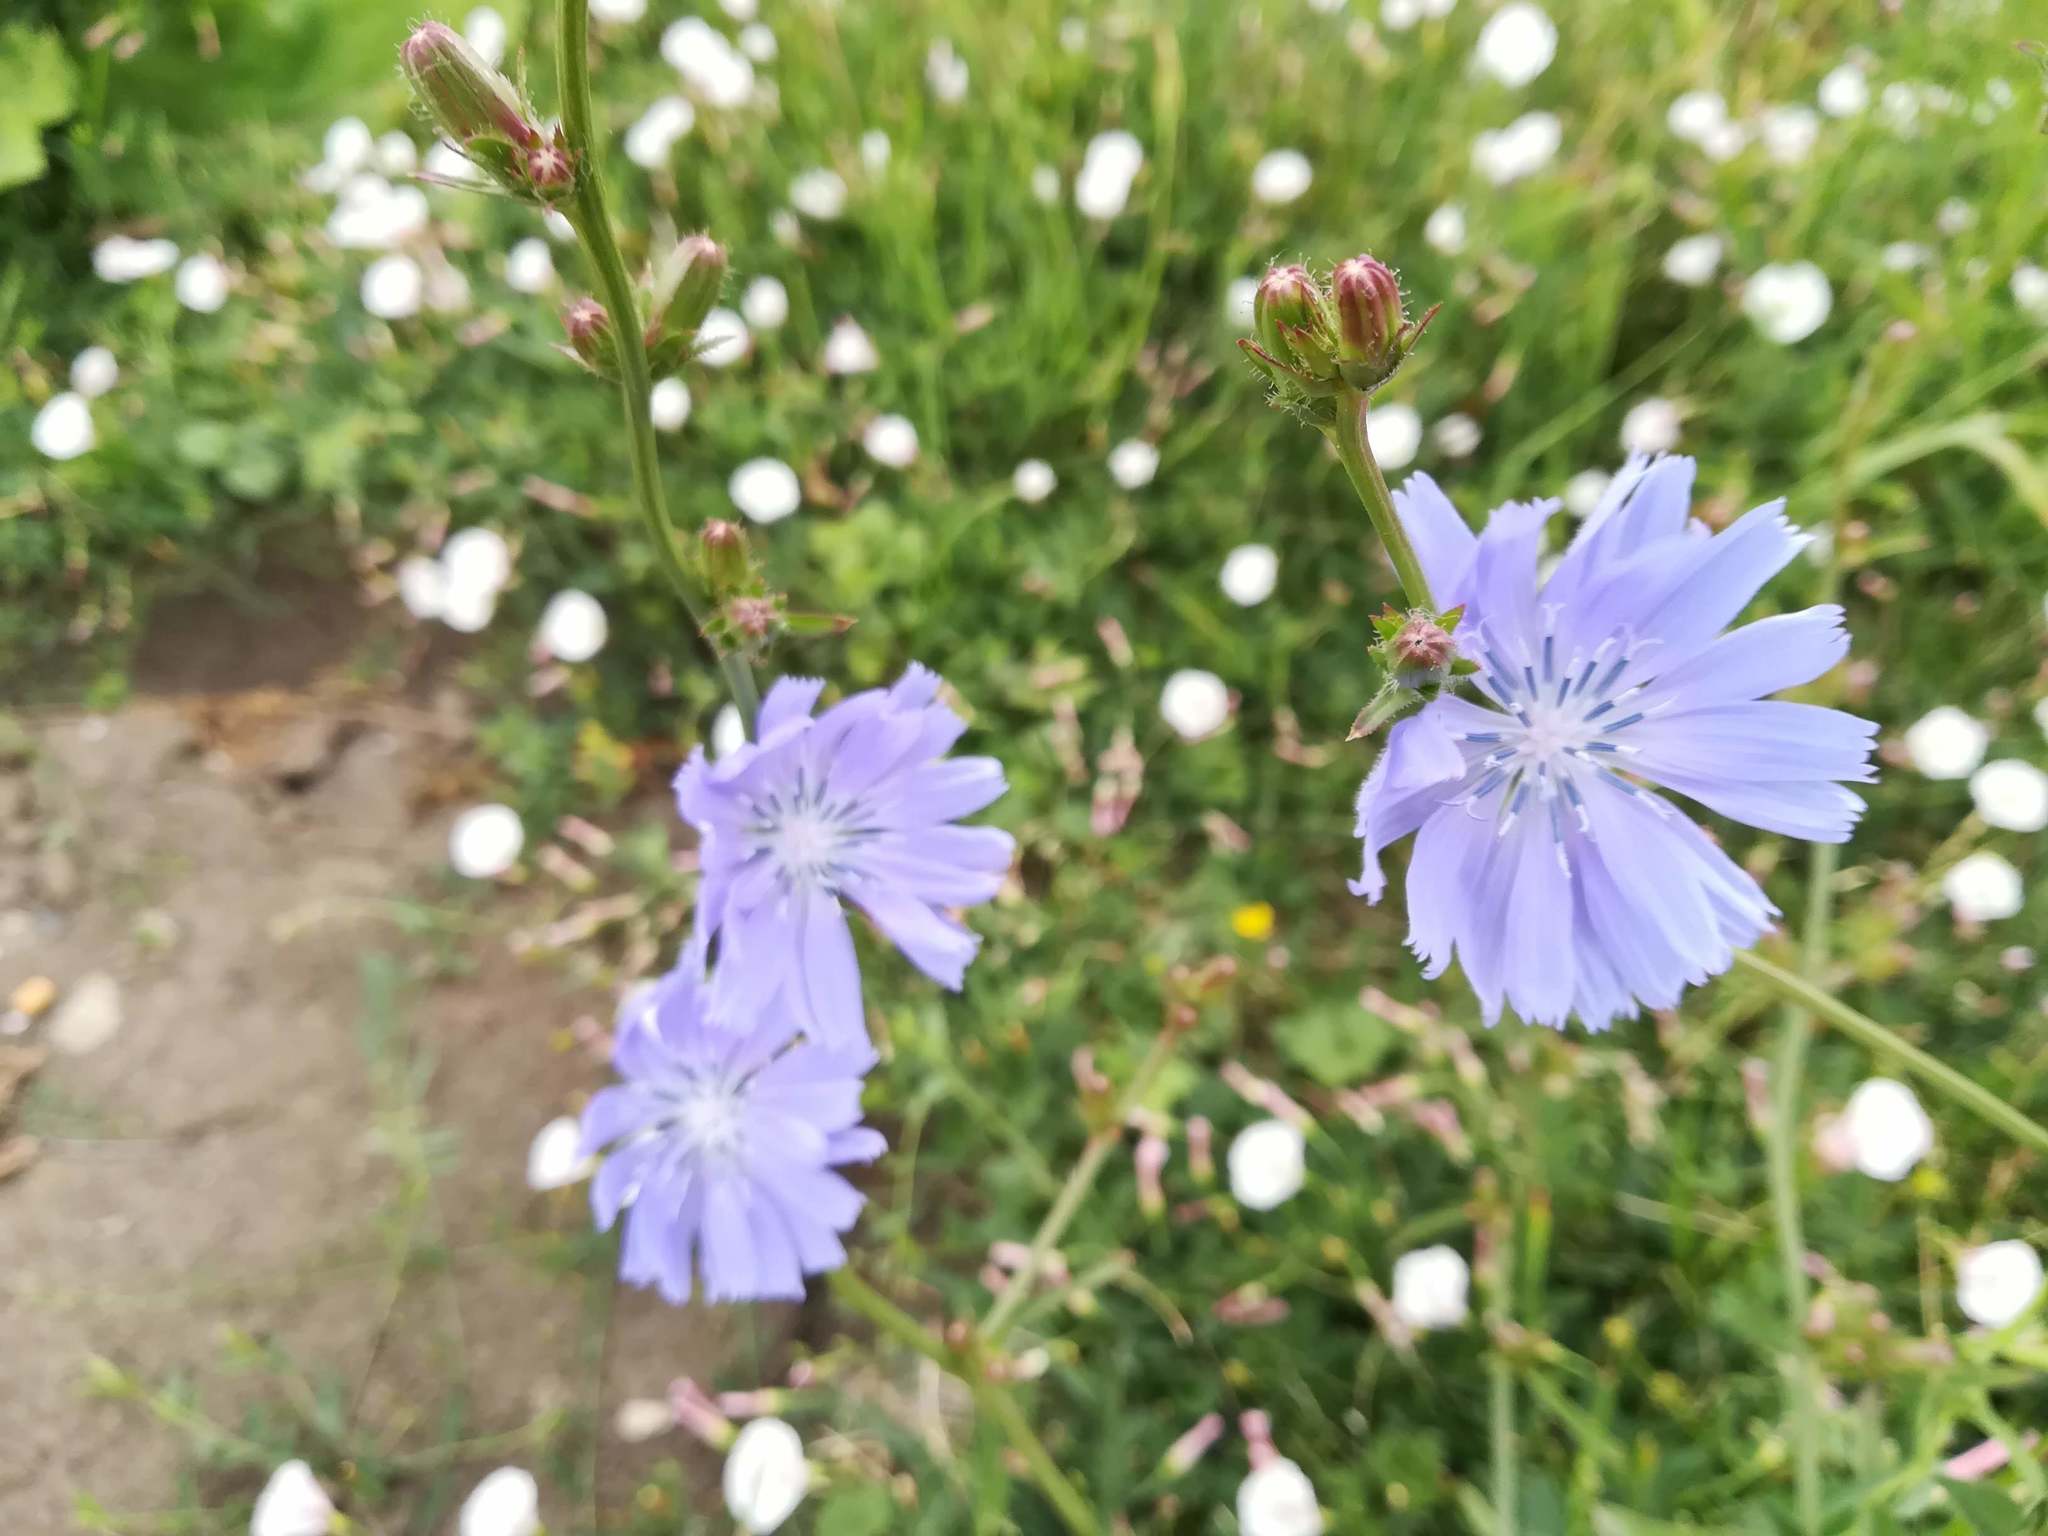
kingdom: Plantae
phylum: Tracheophyta
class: Magnoliopsida
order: Asterales
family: Asteraceae
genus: Cichorium
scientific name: Cichorium intybus
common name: Chicory
